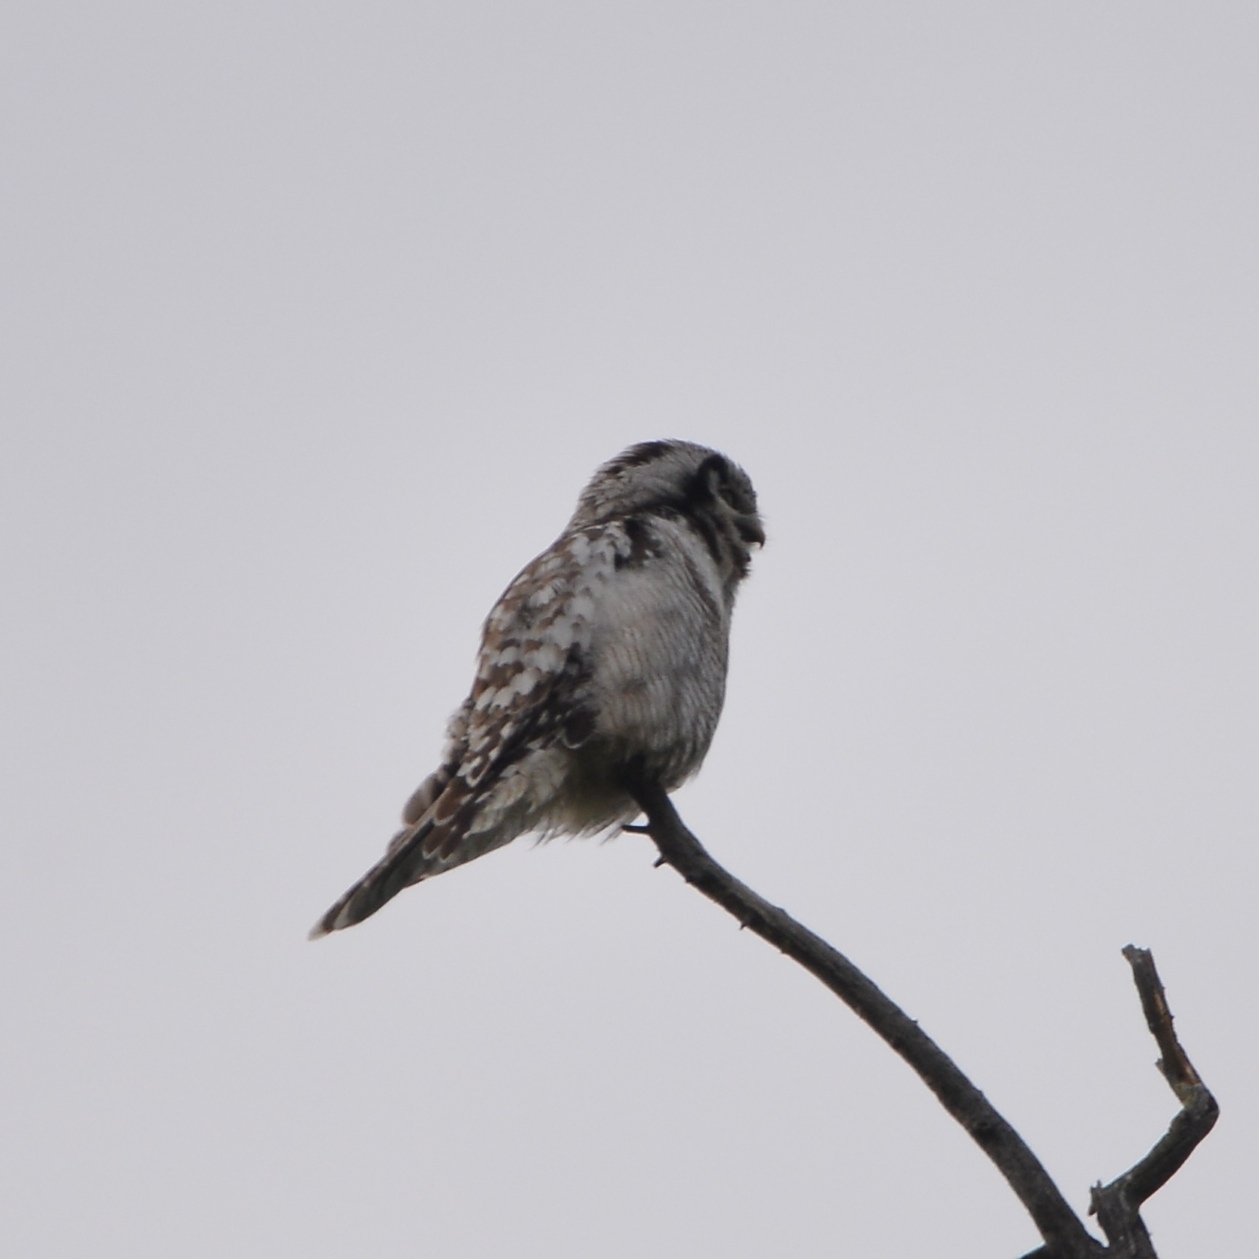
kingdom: Animalia
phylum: Chordata
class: Aves
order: Strigiformes
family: Strigidae
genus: Surnia
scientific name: Surnia ulula
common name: Northern hawk-owl
